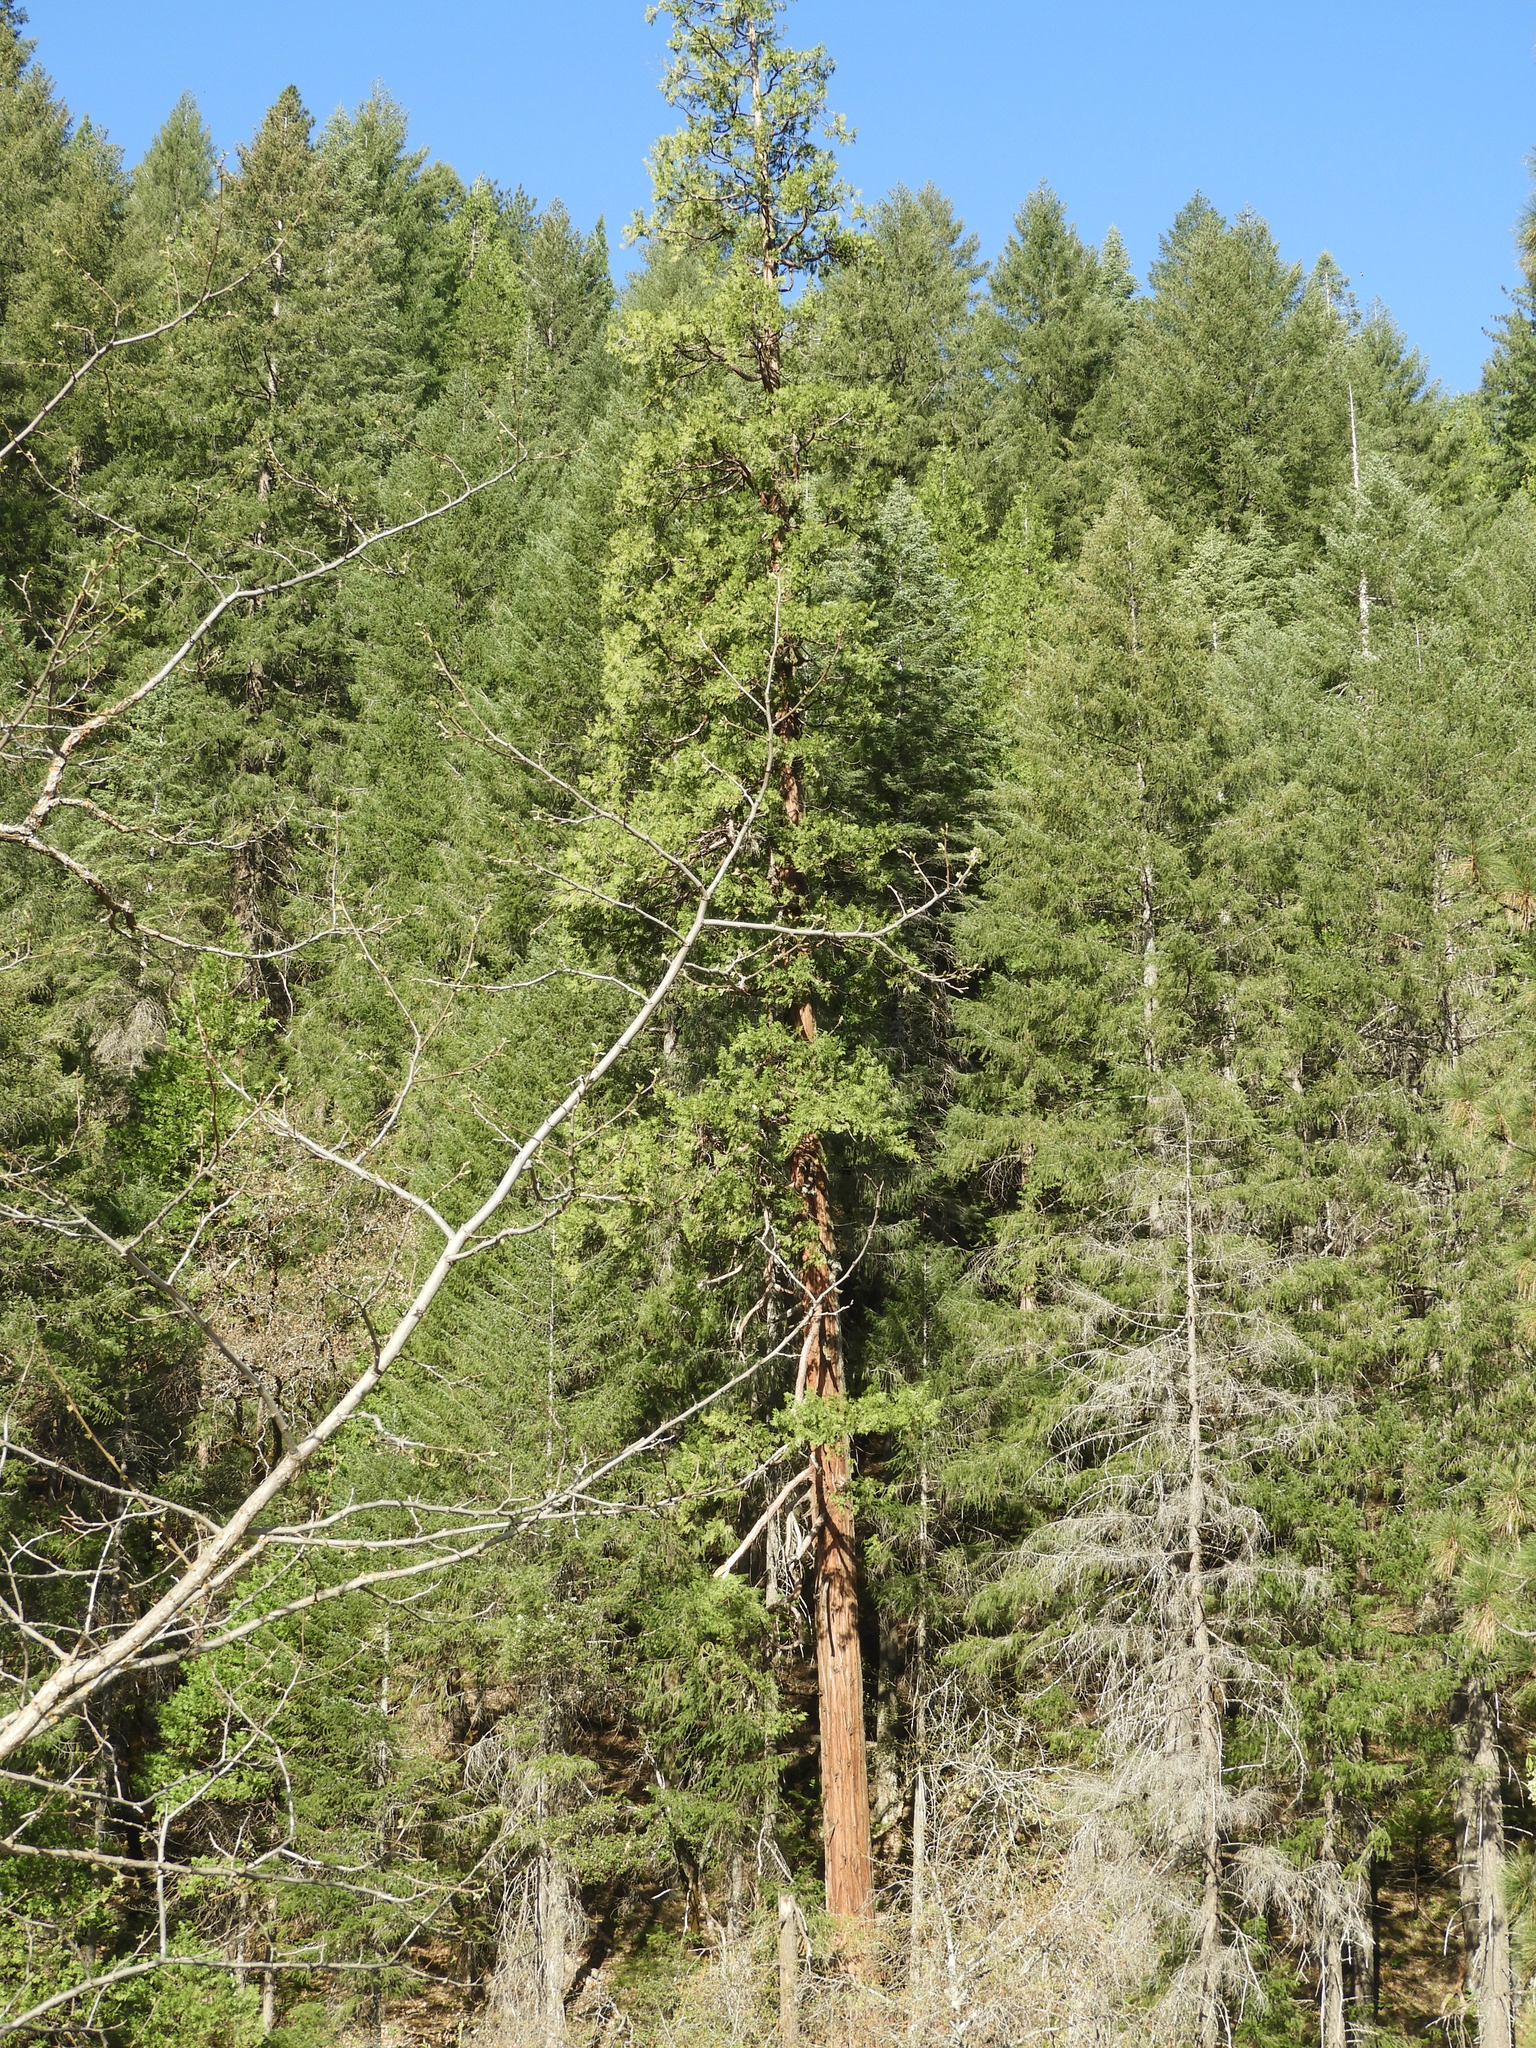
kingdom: Plantae
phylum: Tracheophyta
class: Pinopsida
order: Pinales
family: Cupressaceae
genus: Calocedrus
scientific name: Calocedrus decurrens
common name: Californian incense-cedar
